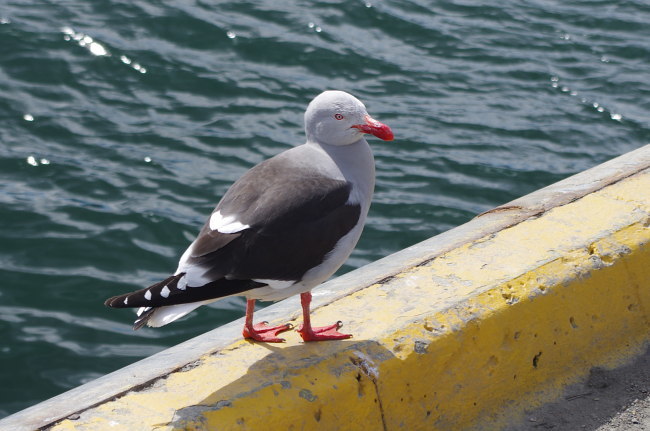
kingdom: Animalia
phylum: Chordata
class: Aves
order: Charadriiformes
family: Laridae
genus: Leucophaeus
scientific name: Leucophaeus scoresbii
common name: Dolphin gull
